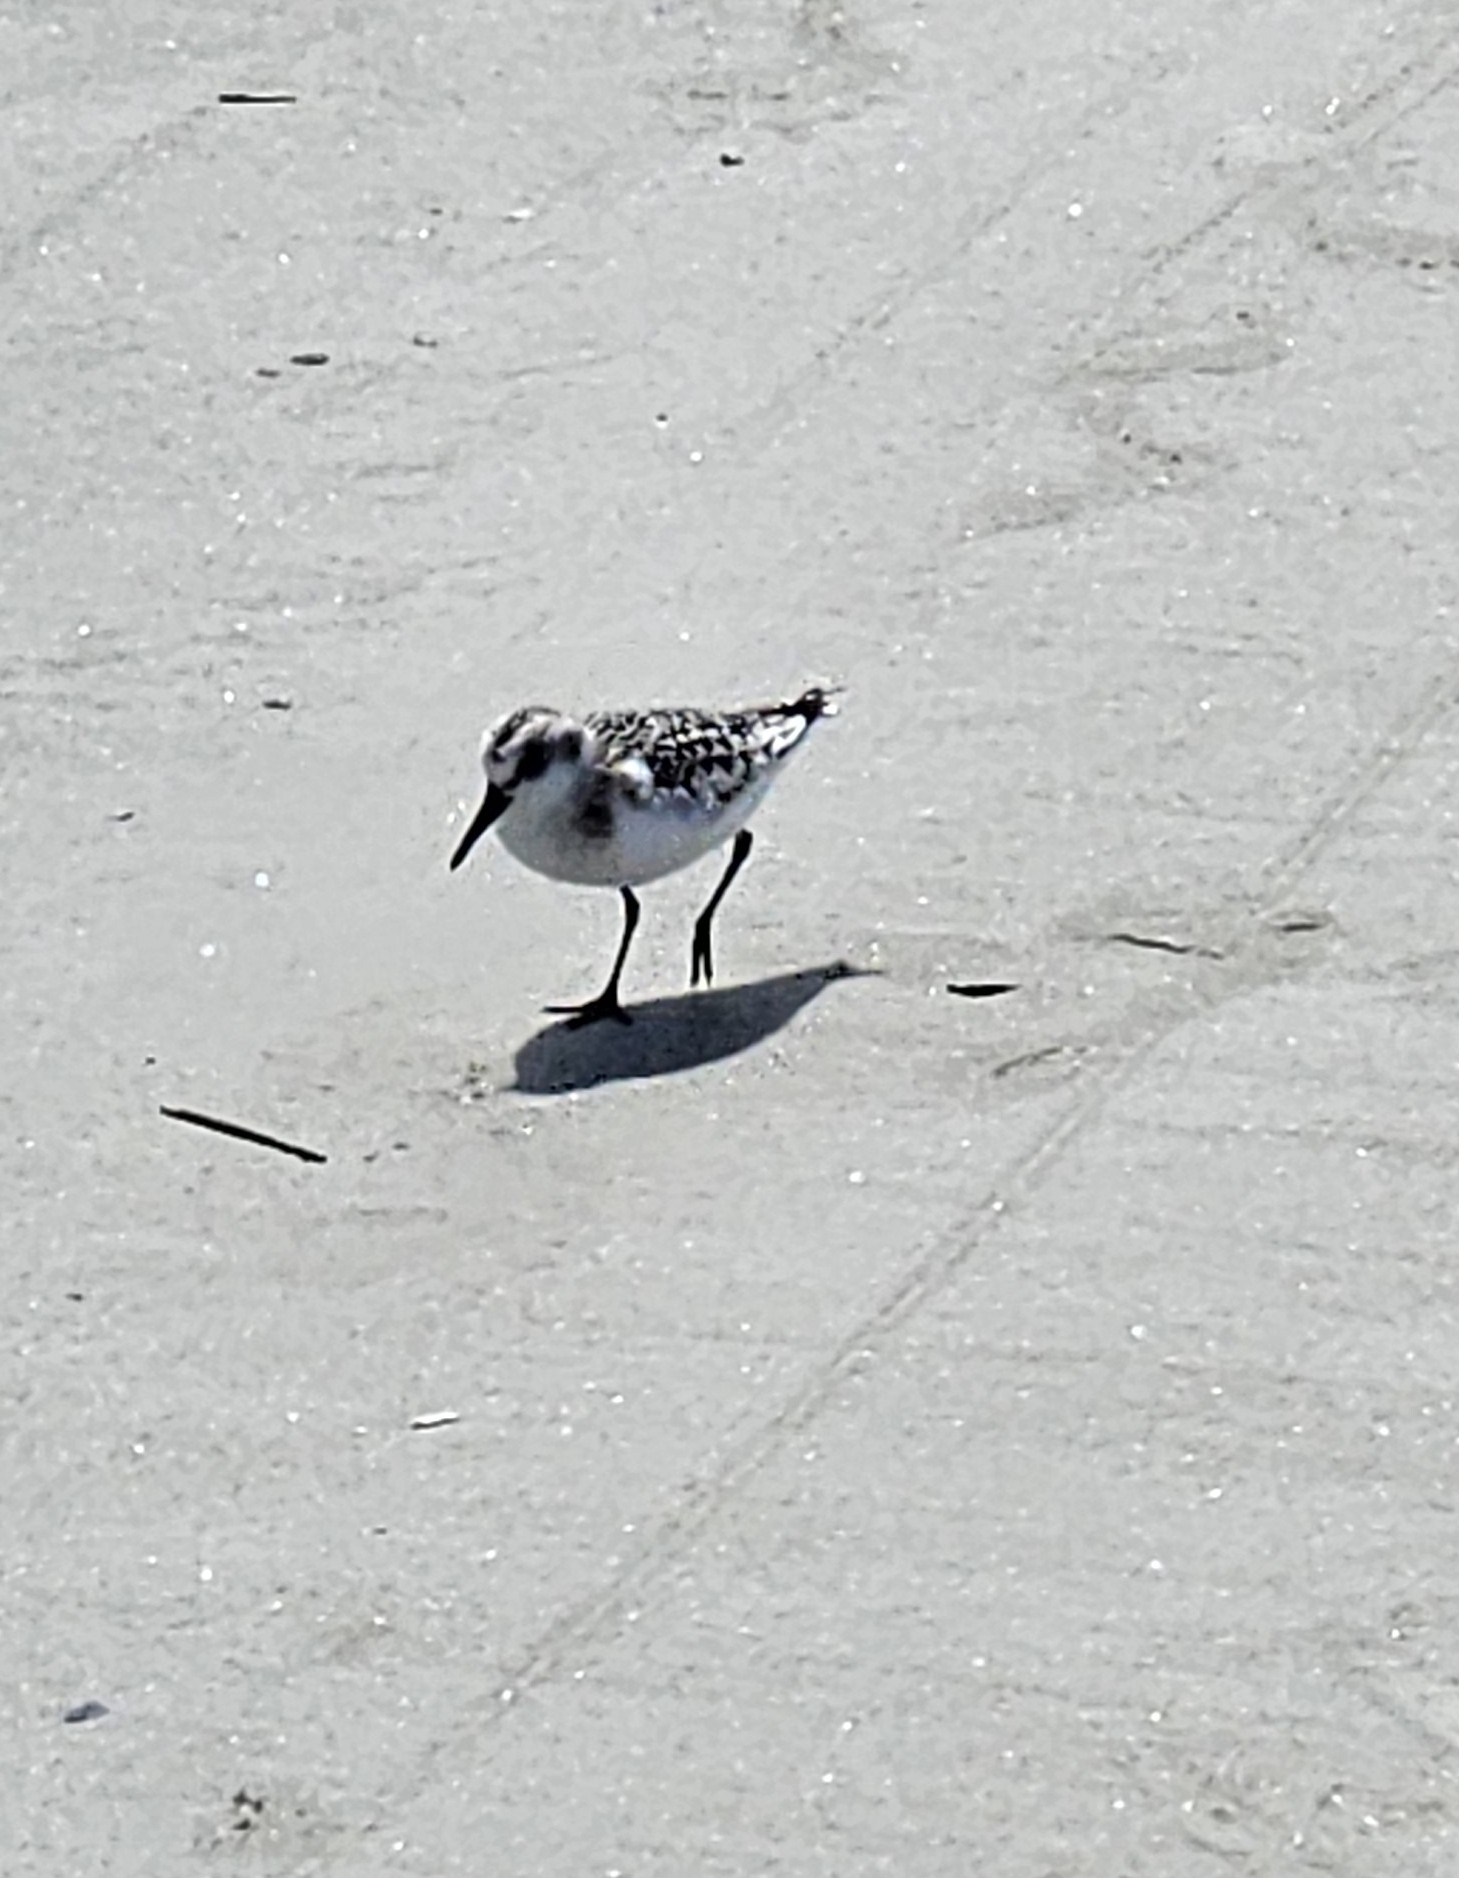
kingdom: Animalia
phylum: Chordata
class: Aves
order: Charadriiformes
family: Scolopacidae
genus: Calidris
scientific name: Calidris alba
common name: Sanderling
